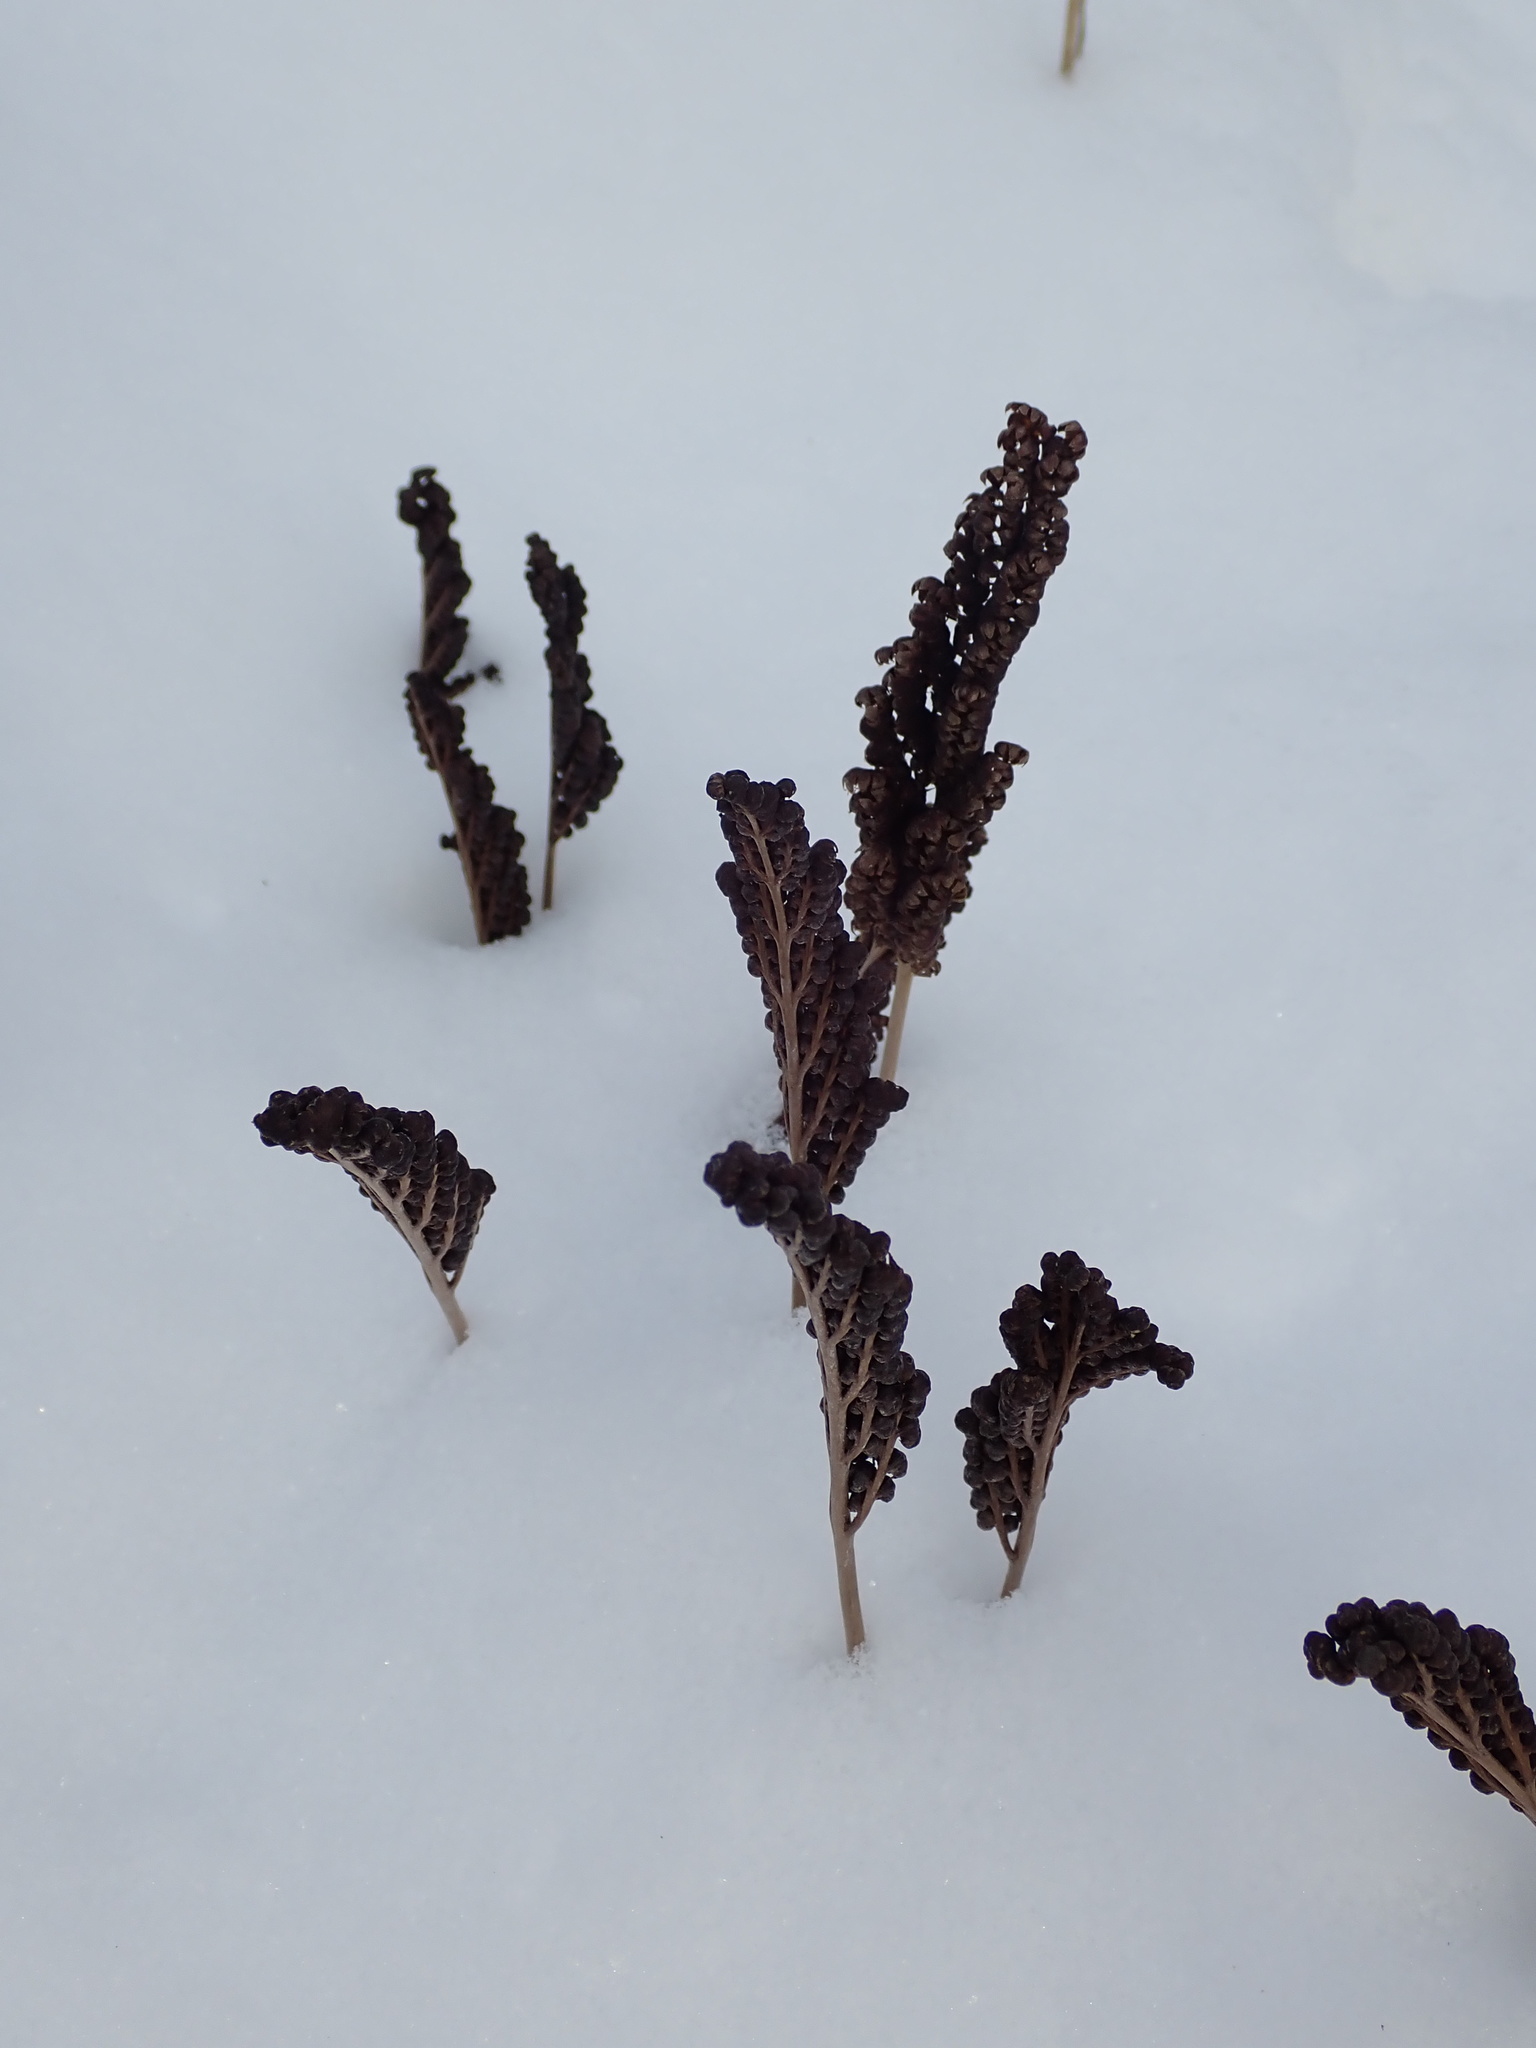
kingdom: Plantae
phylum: Tracheophyta
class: Polypodiopsida
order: Polypodiales
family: Onocleaceae
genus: Onoclea
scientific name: Onoclea sensibilis
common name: Sensitive fern
